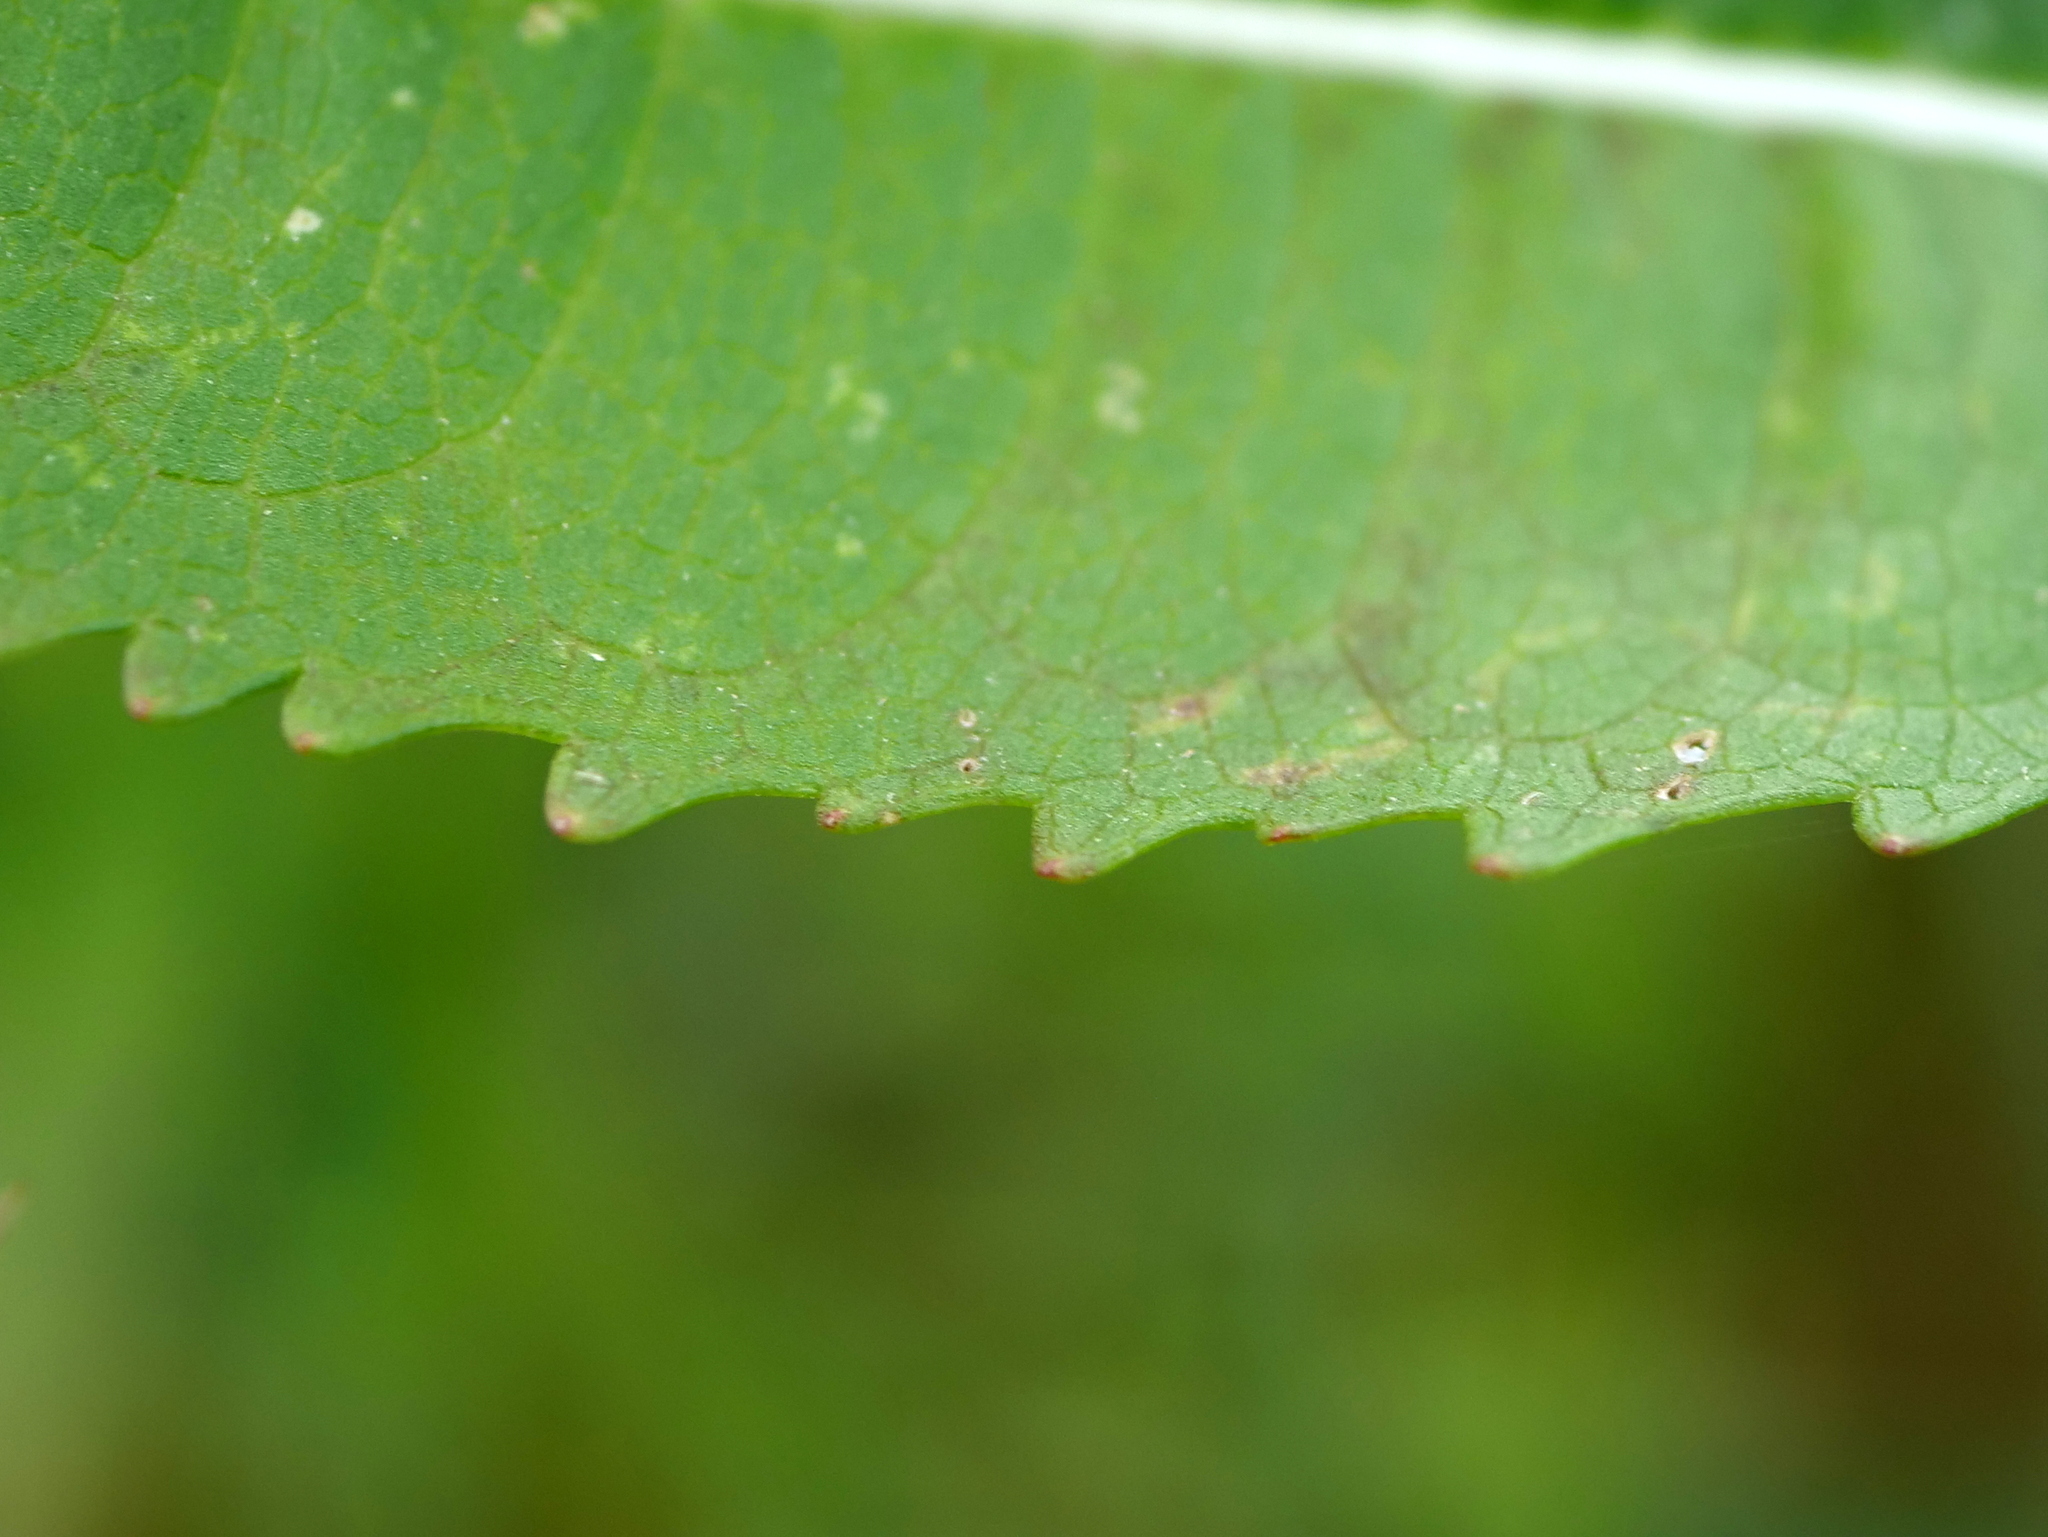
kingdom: Plantae
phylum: Tracheophyta
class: Magnoliopsida
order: Dipsacales
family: Caprifoliaceae
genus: Dipsacus
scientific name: Dipsacus fullonum
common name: Teasel
